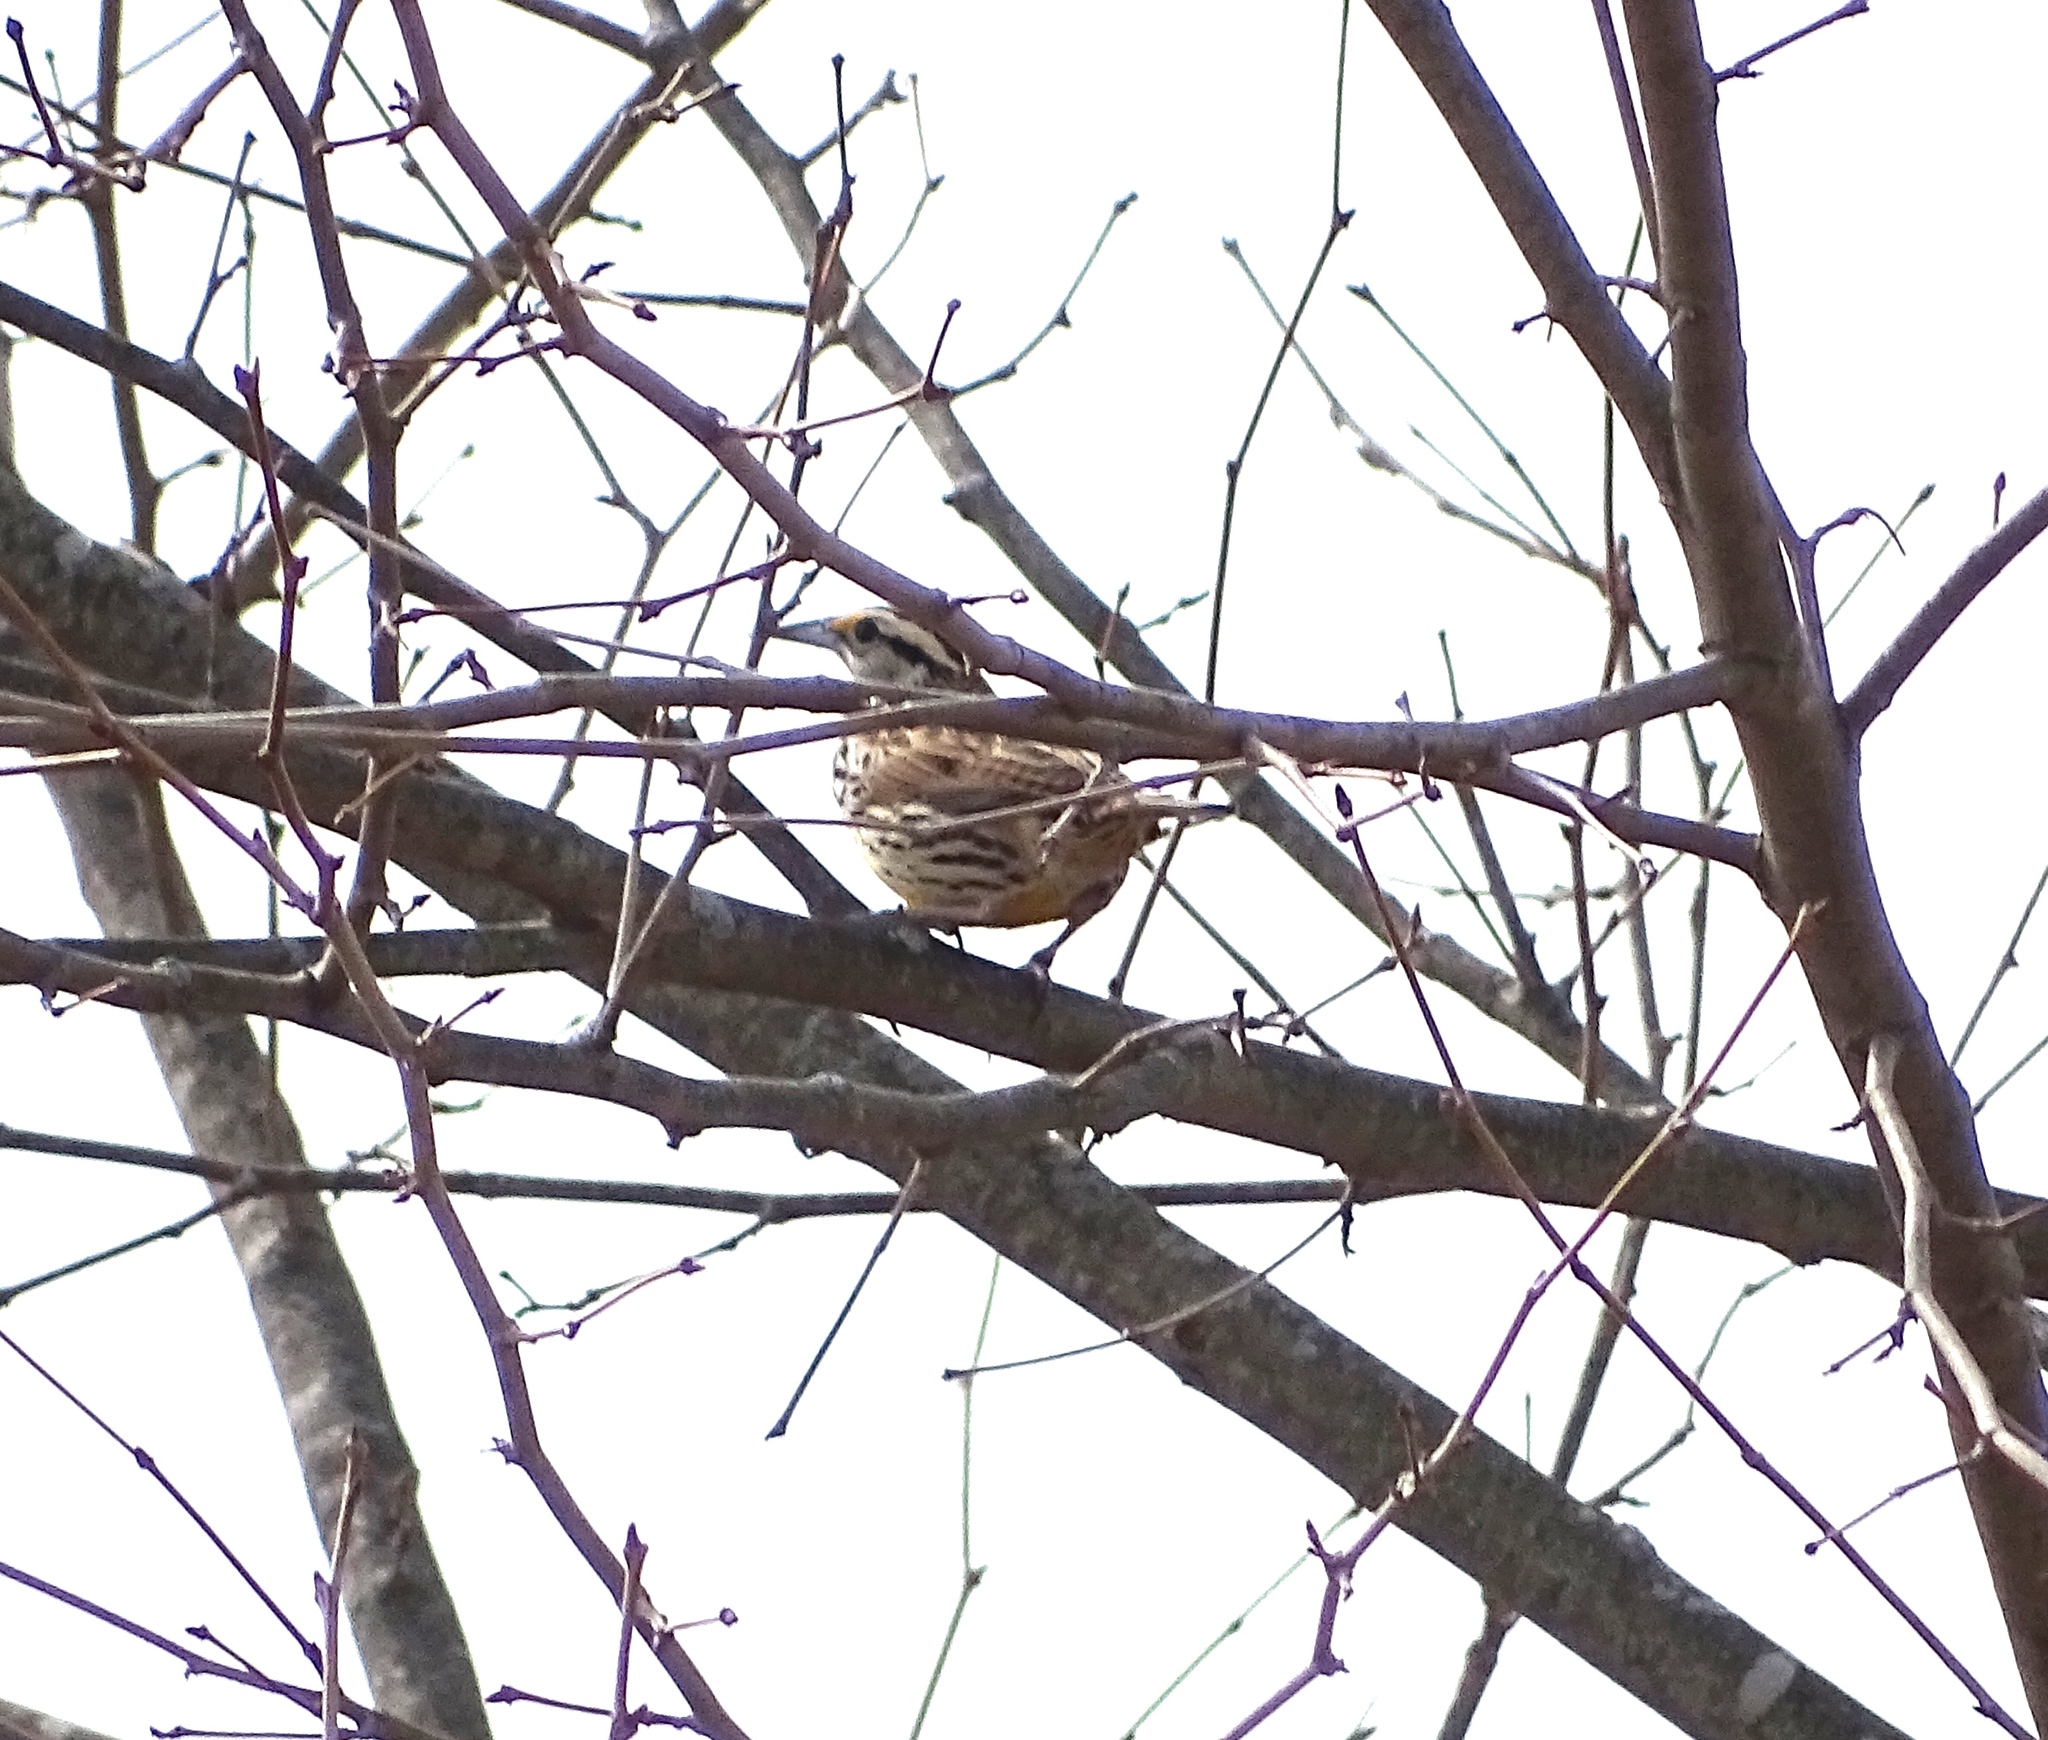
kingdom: Animalia
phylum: Chordata
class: Aves
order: Passeriformes
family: Icteridae
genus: Sturnella
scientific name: Sturnella magna
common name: Eastern meadowlark
